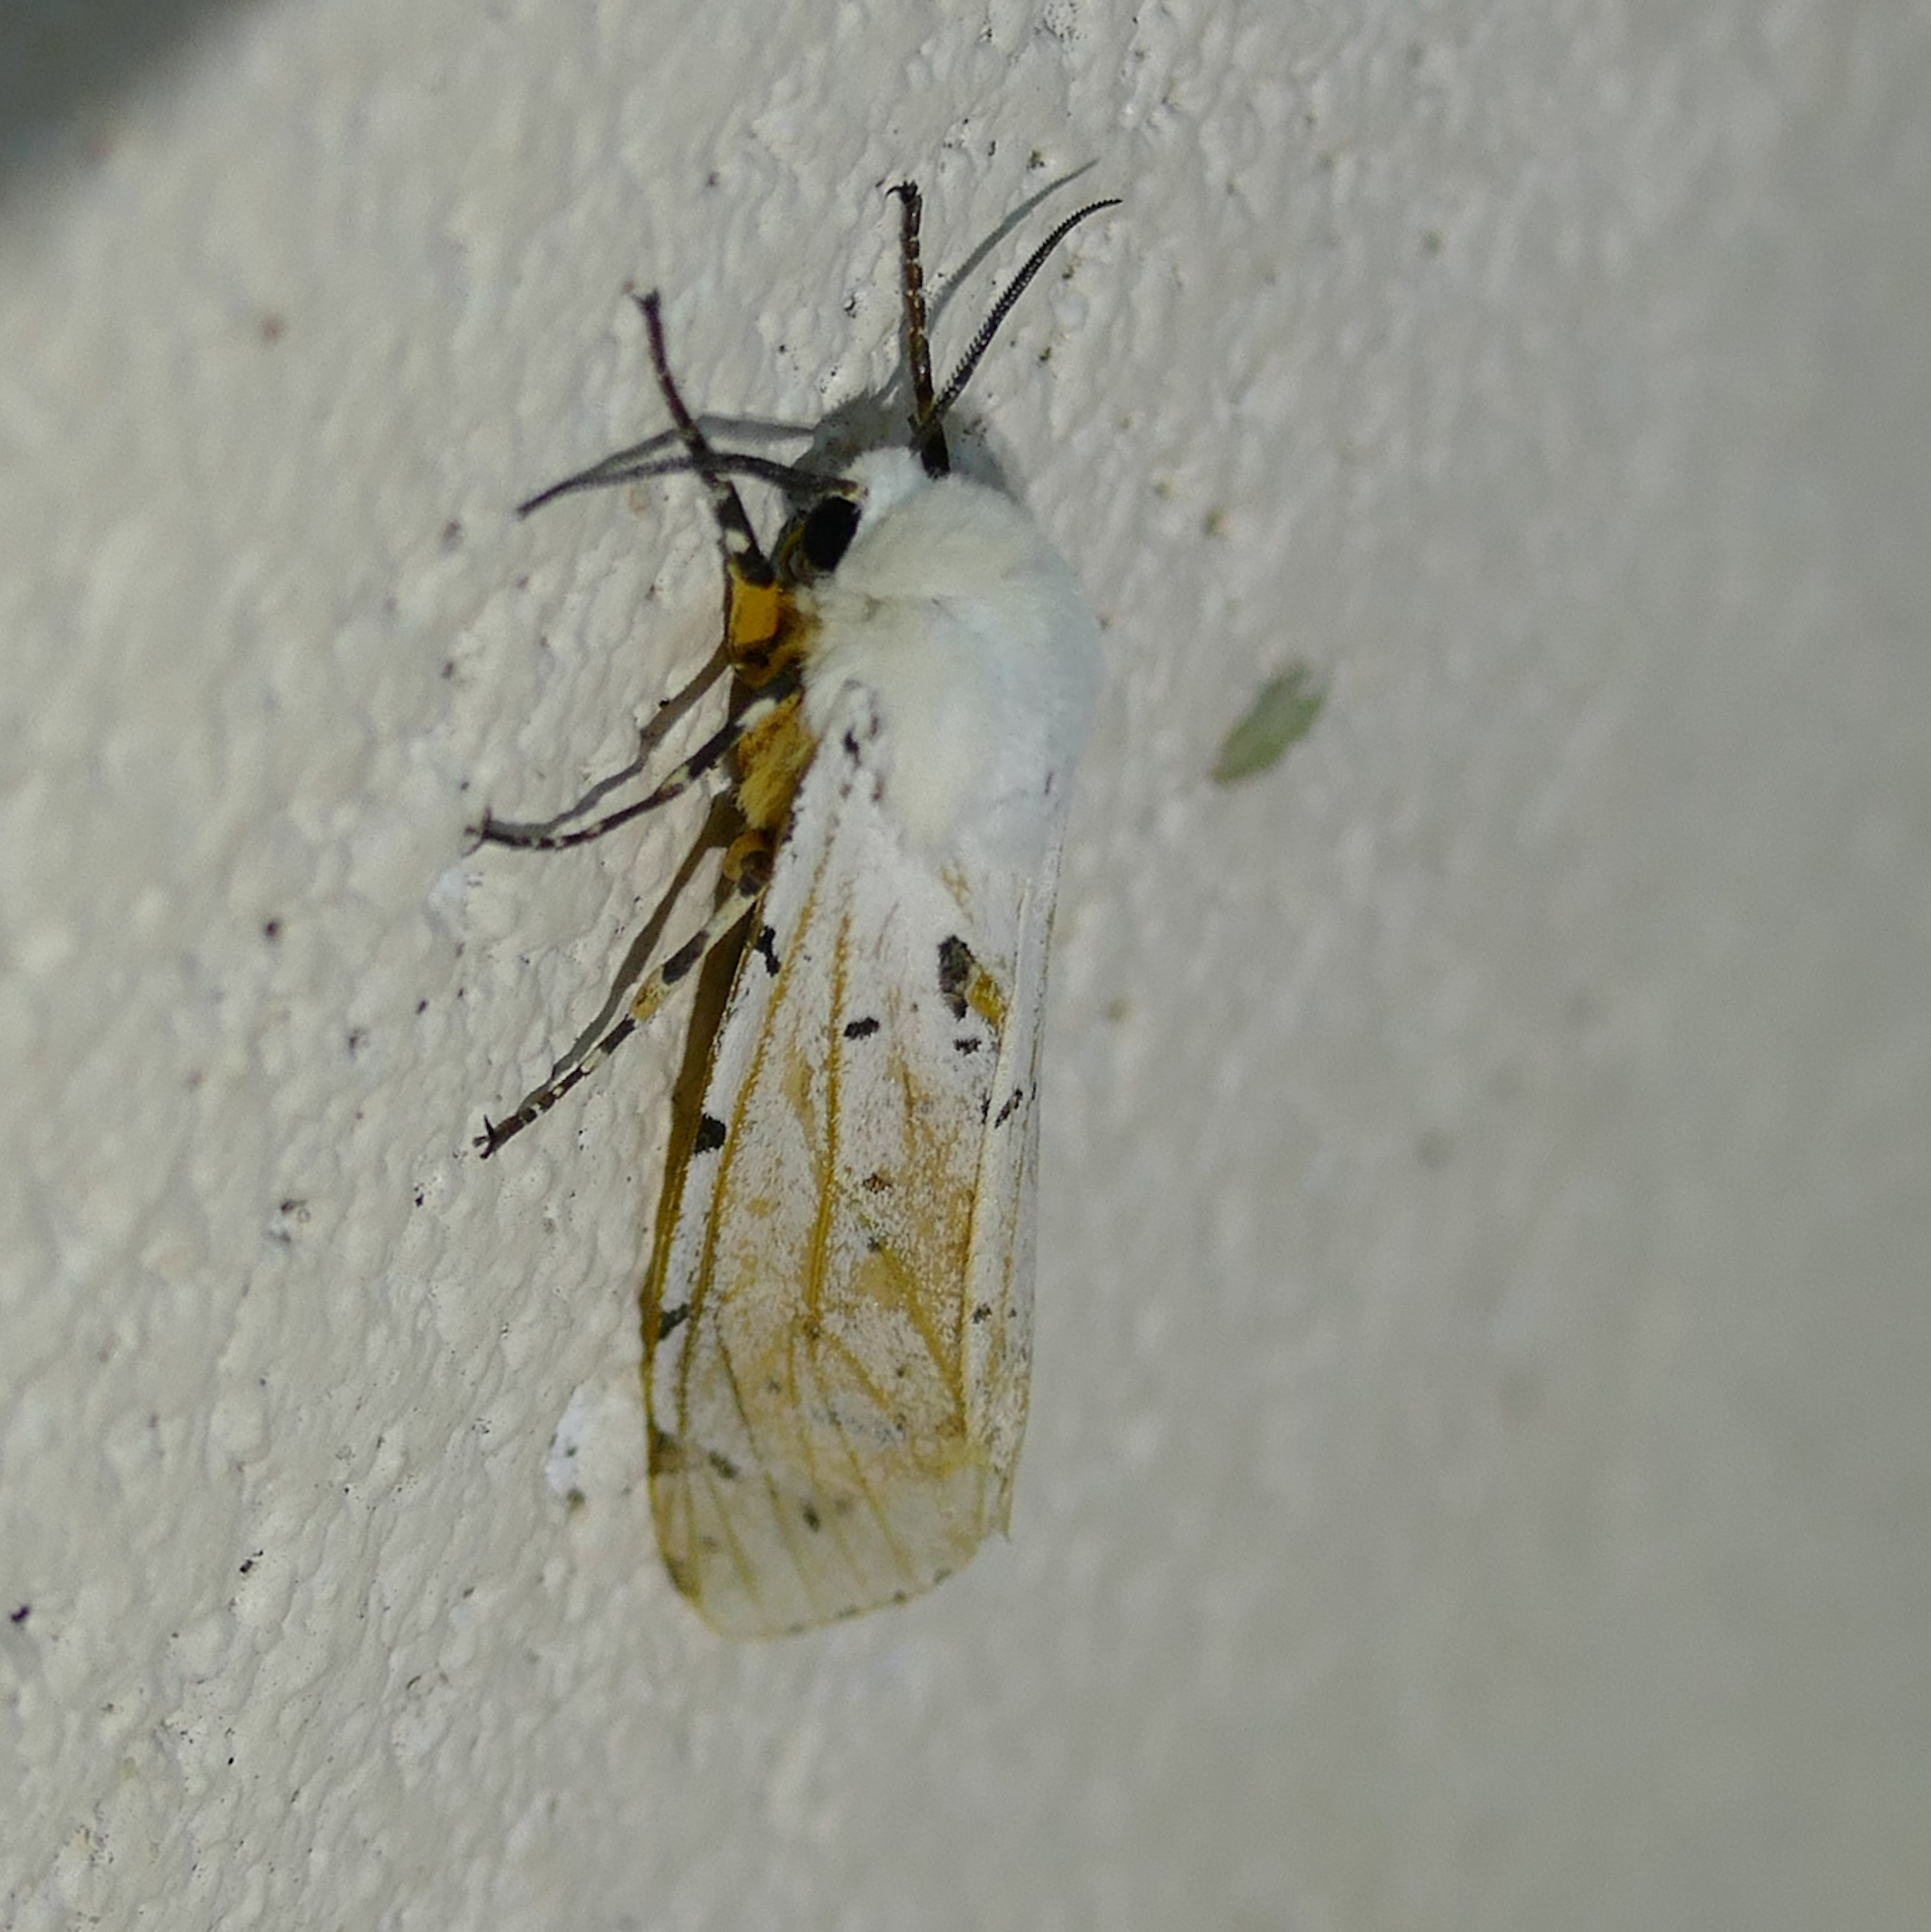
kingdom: Animalia
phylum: Arthropoda
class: Insecta
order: Lepidoptera
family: Erebidae
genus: Estigmene
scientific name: Estigmene acrea
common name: Salt marsh moth
